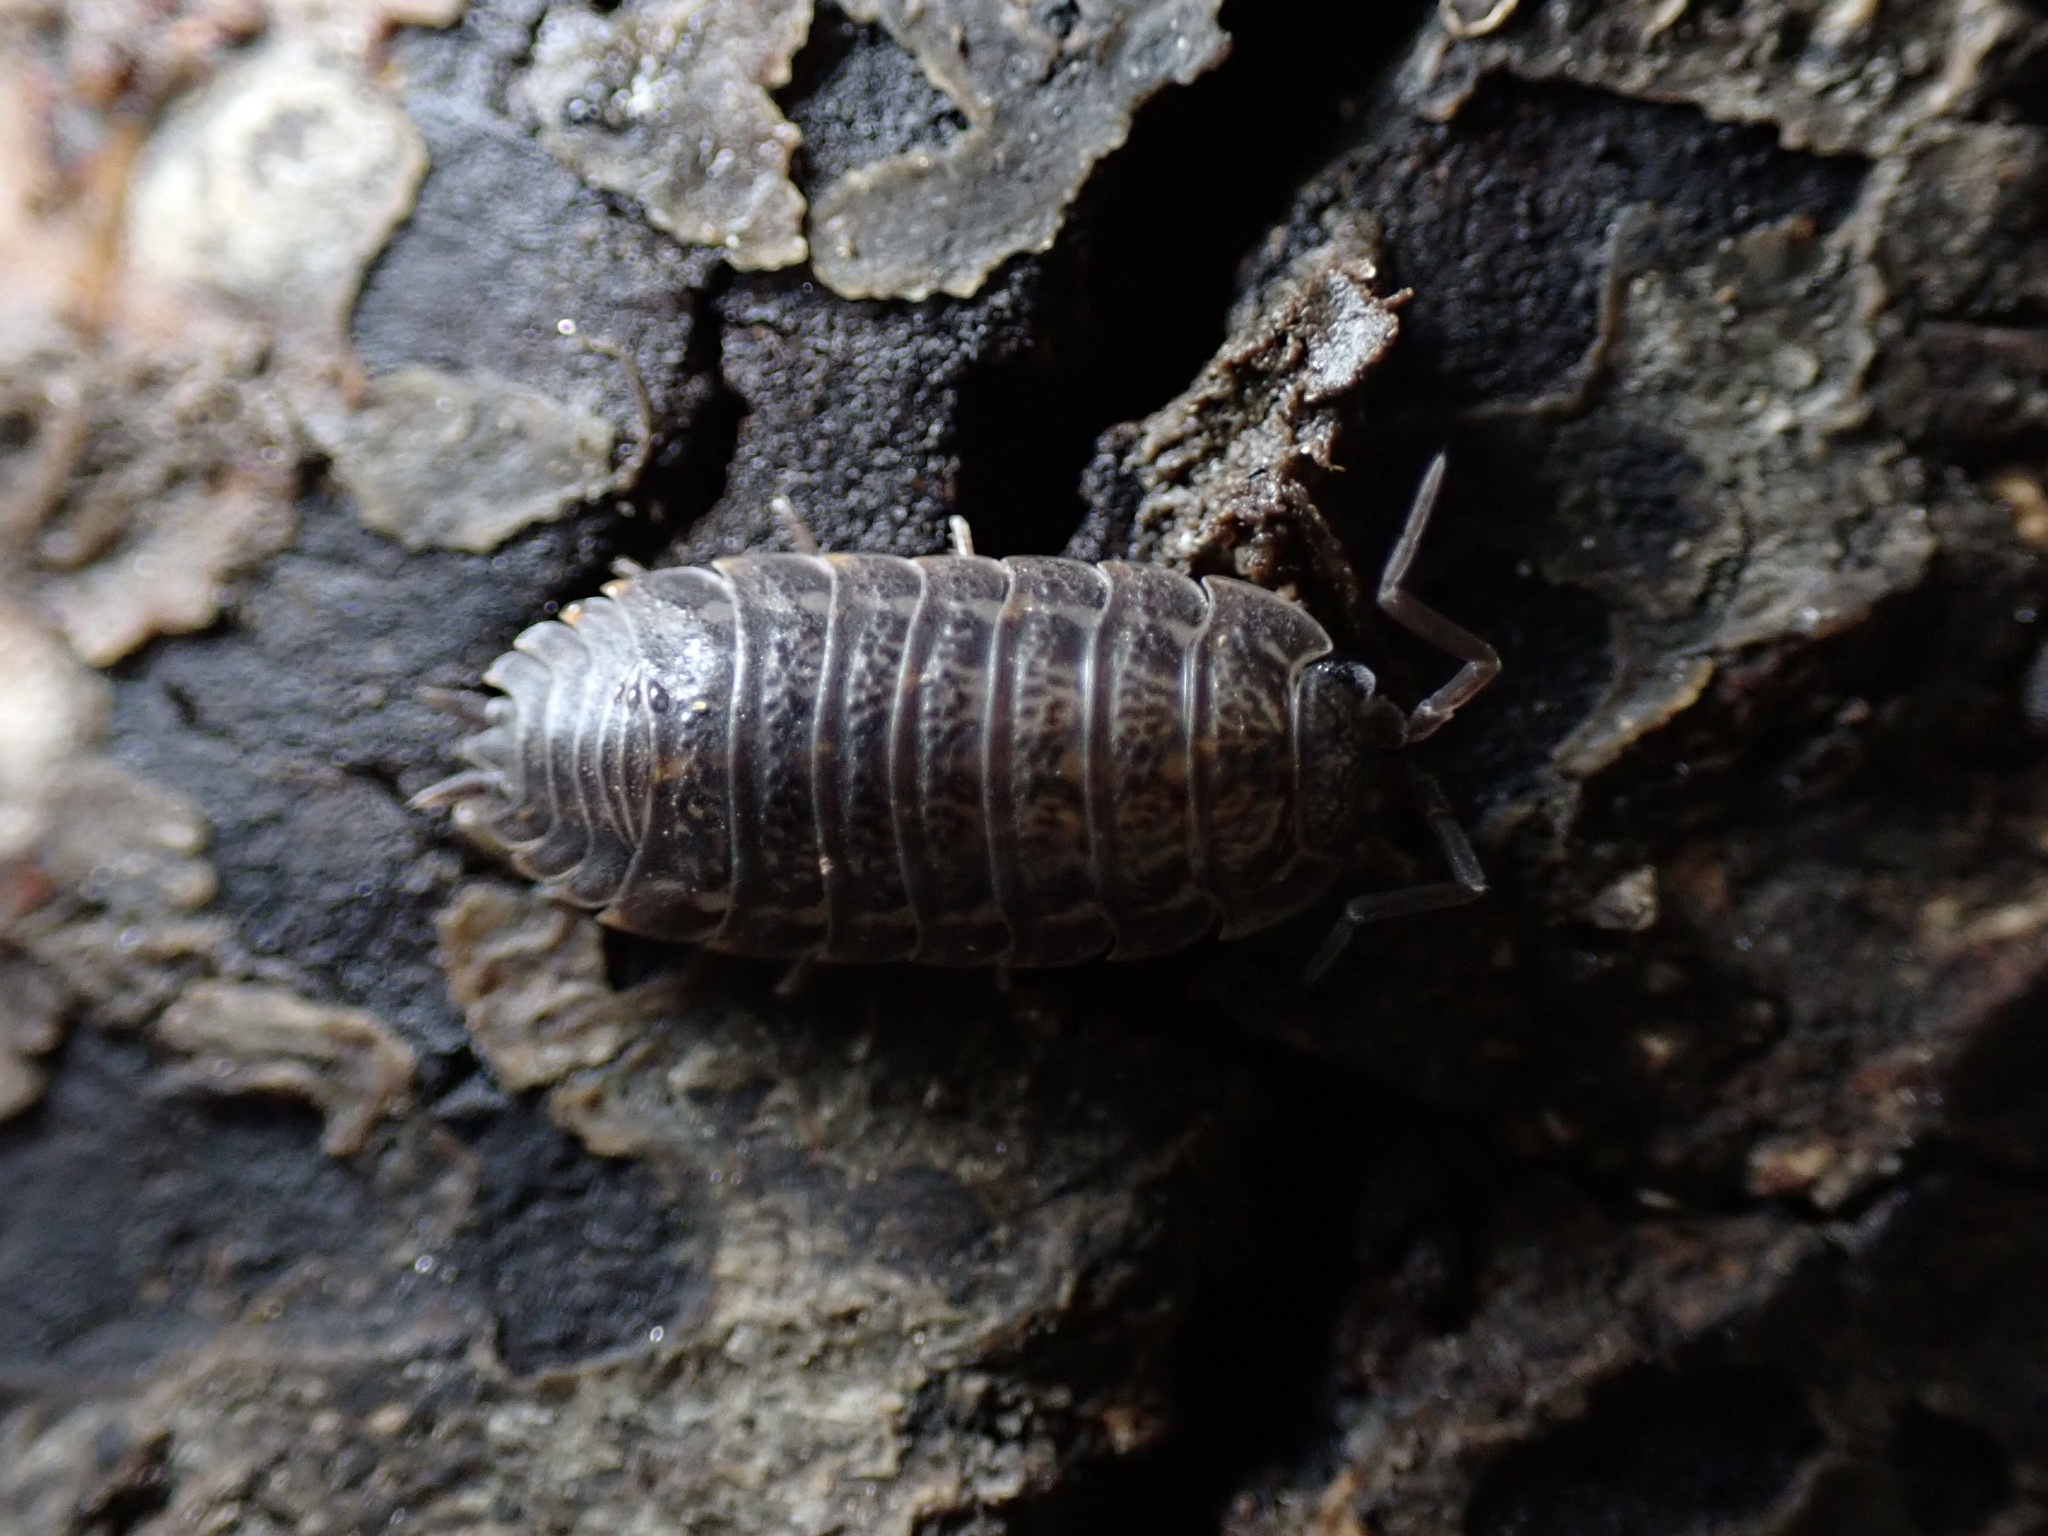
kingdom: Animalia
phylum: Arthropoda
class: Malacostraca
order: Isopoda
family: Trachelipodidae
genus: Trachelipus
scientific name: Trachelipus rathkii
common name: Isopod
